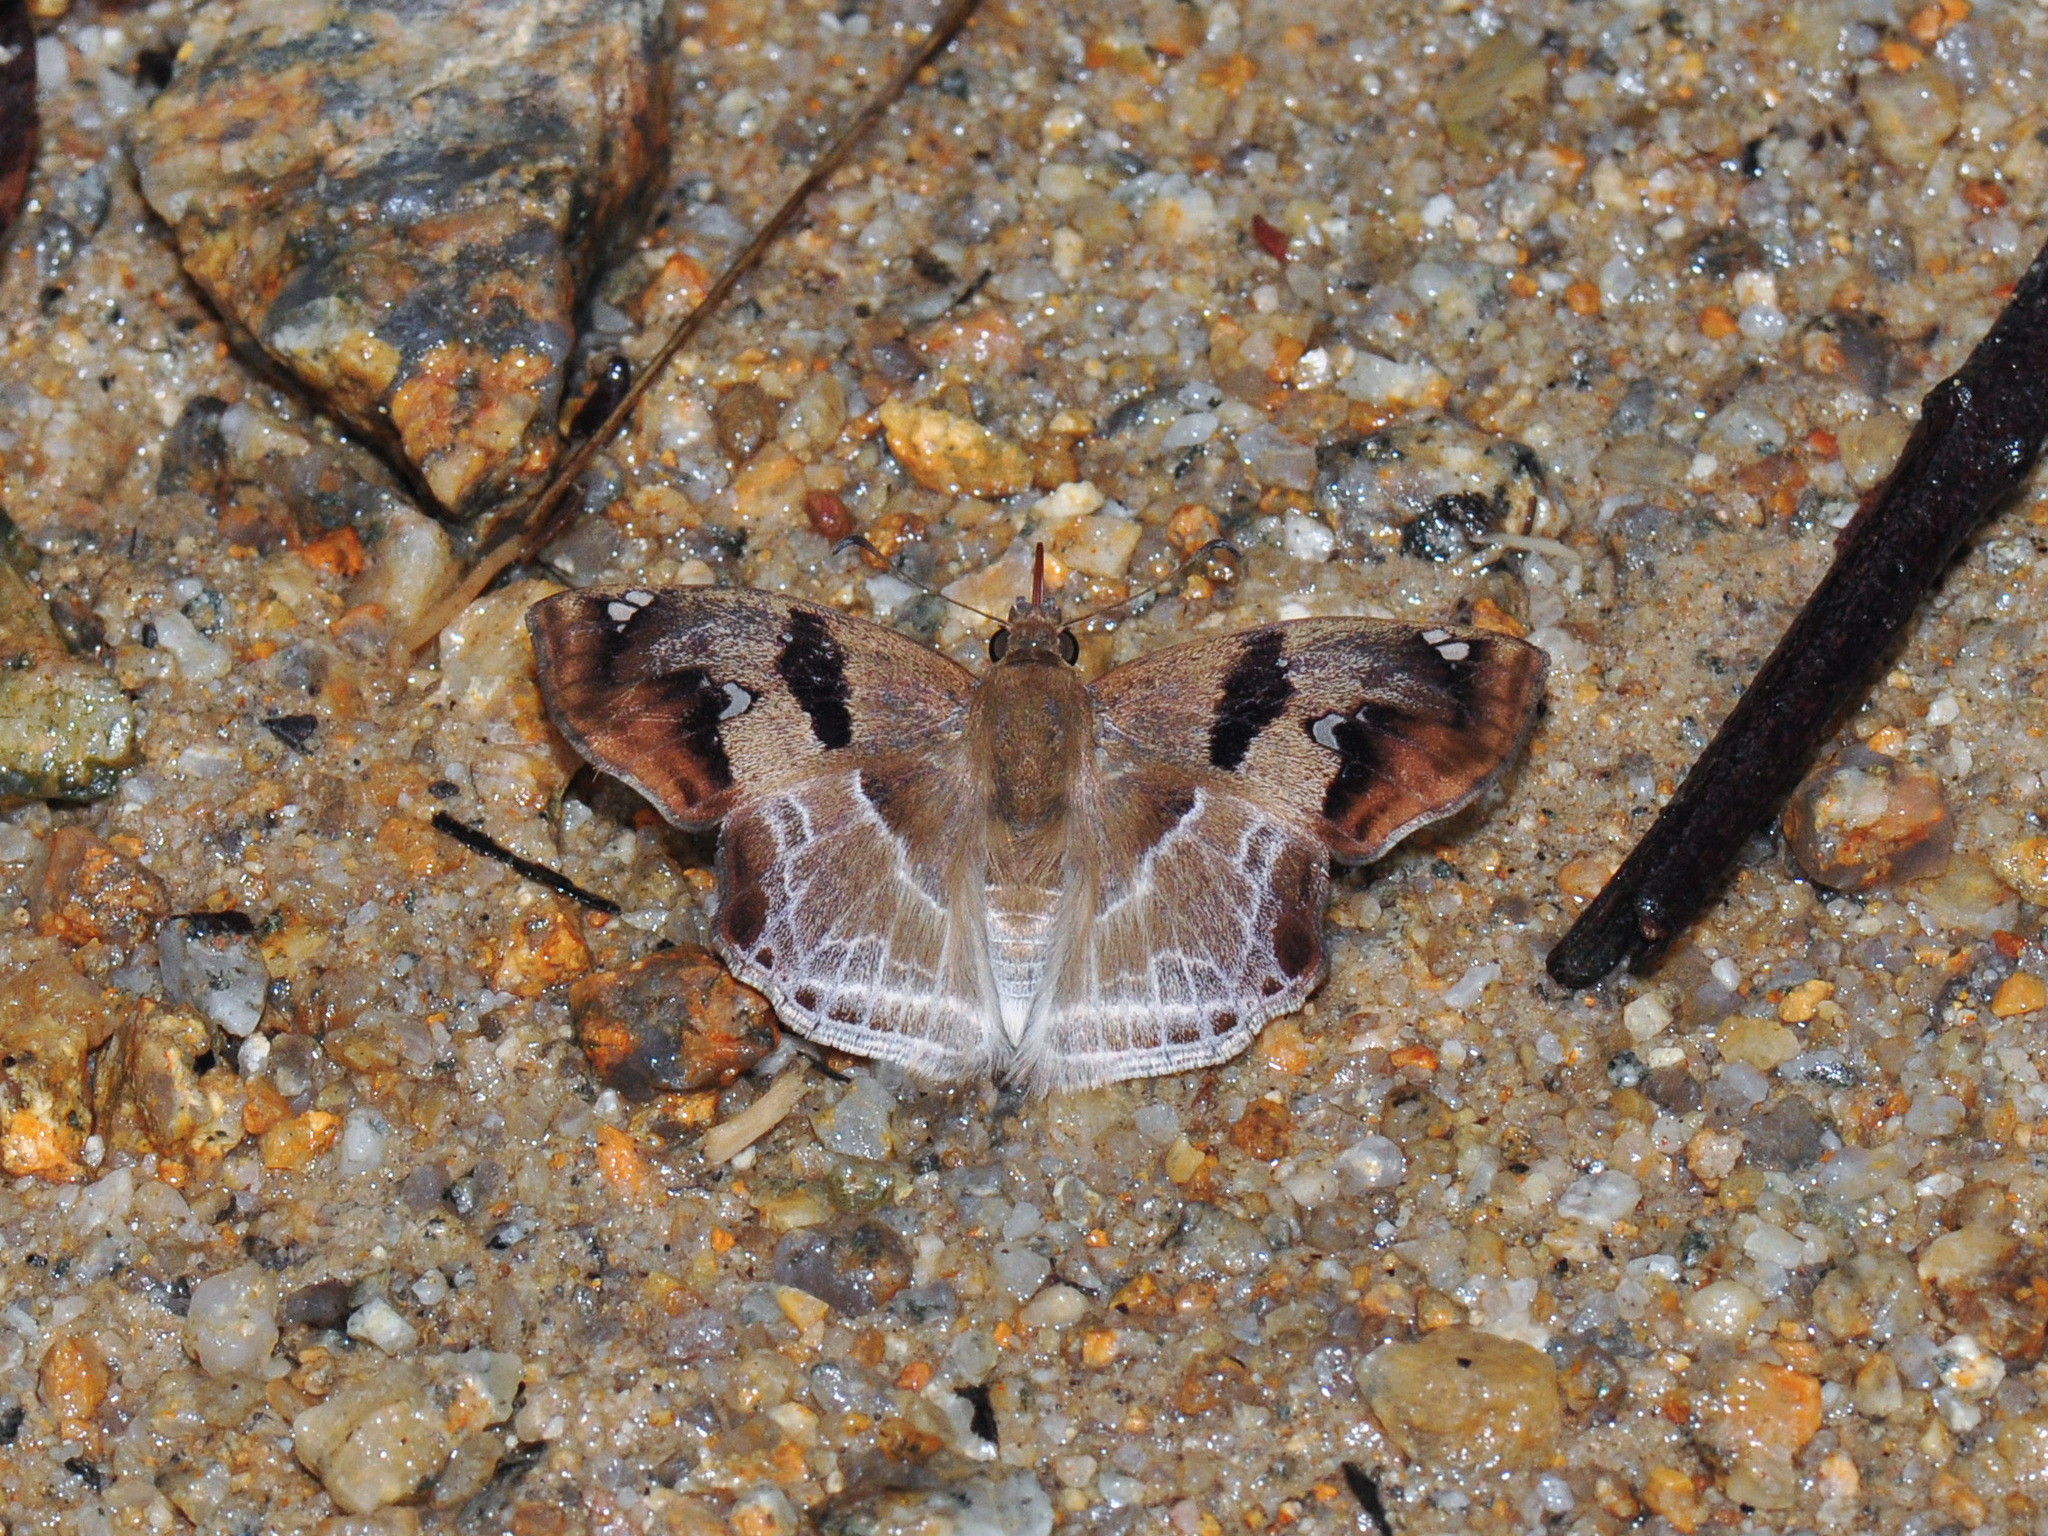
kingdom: Animalia
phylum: Arthropoda
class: Insecta
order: Lepidoptera
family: Hesperiidae
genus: Odontoptilum
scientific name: Odontoptilum angulata
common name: Chestnut banded angle
